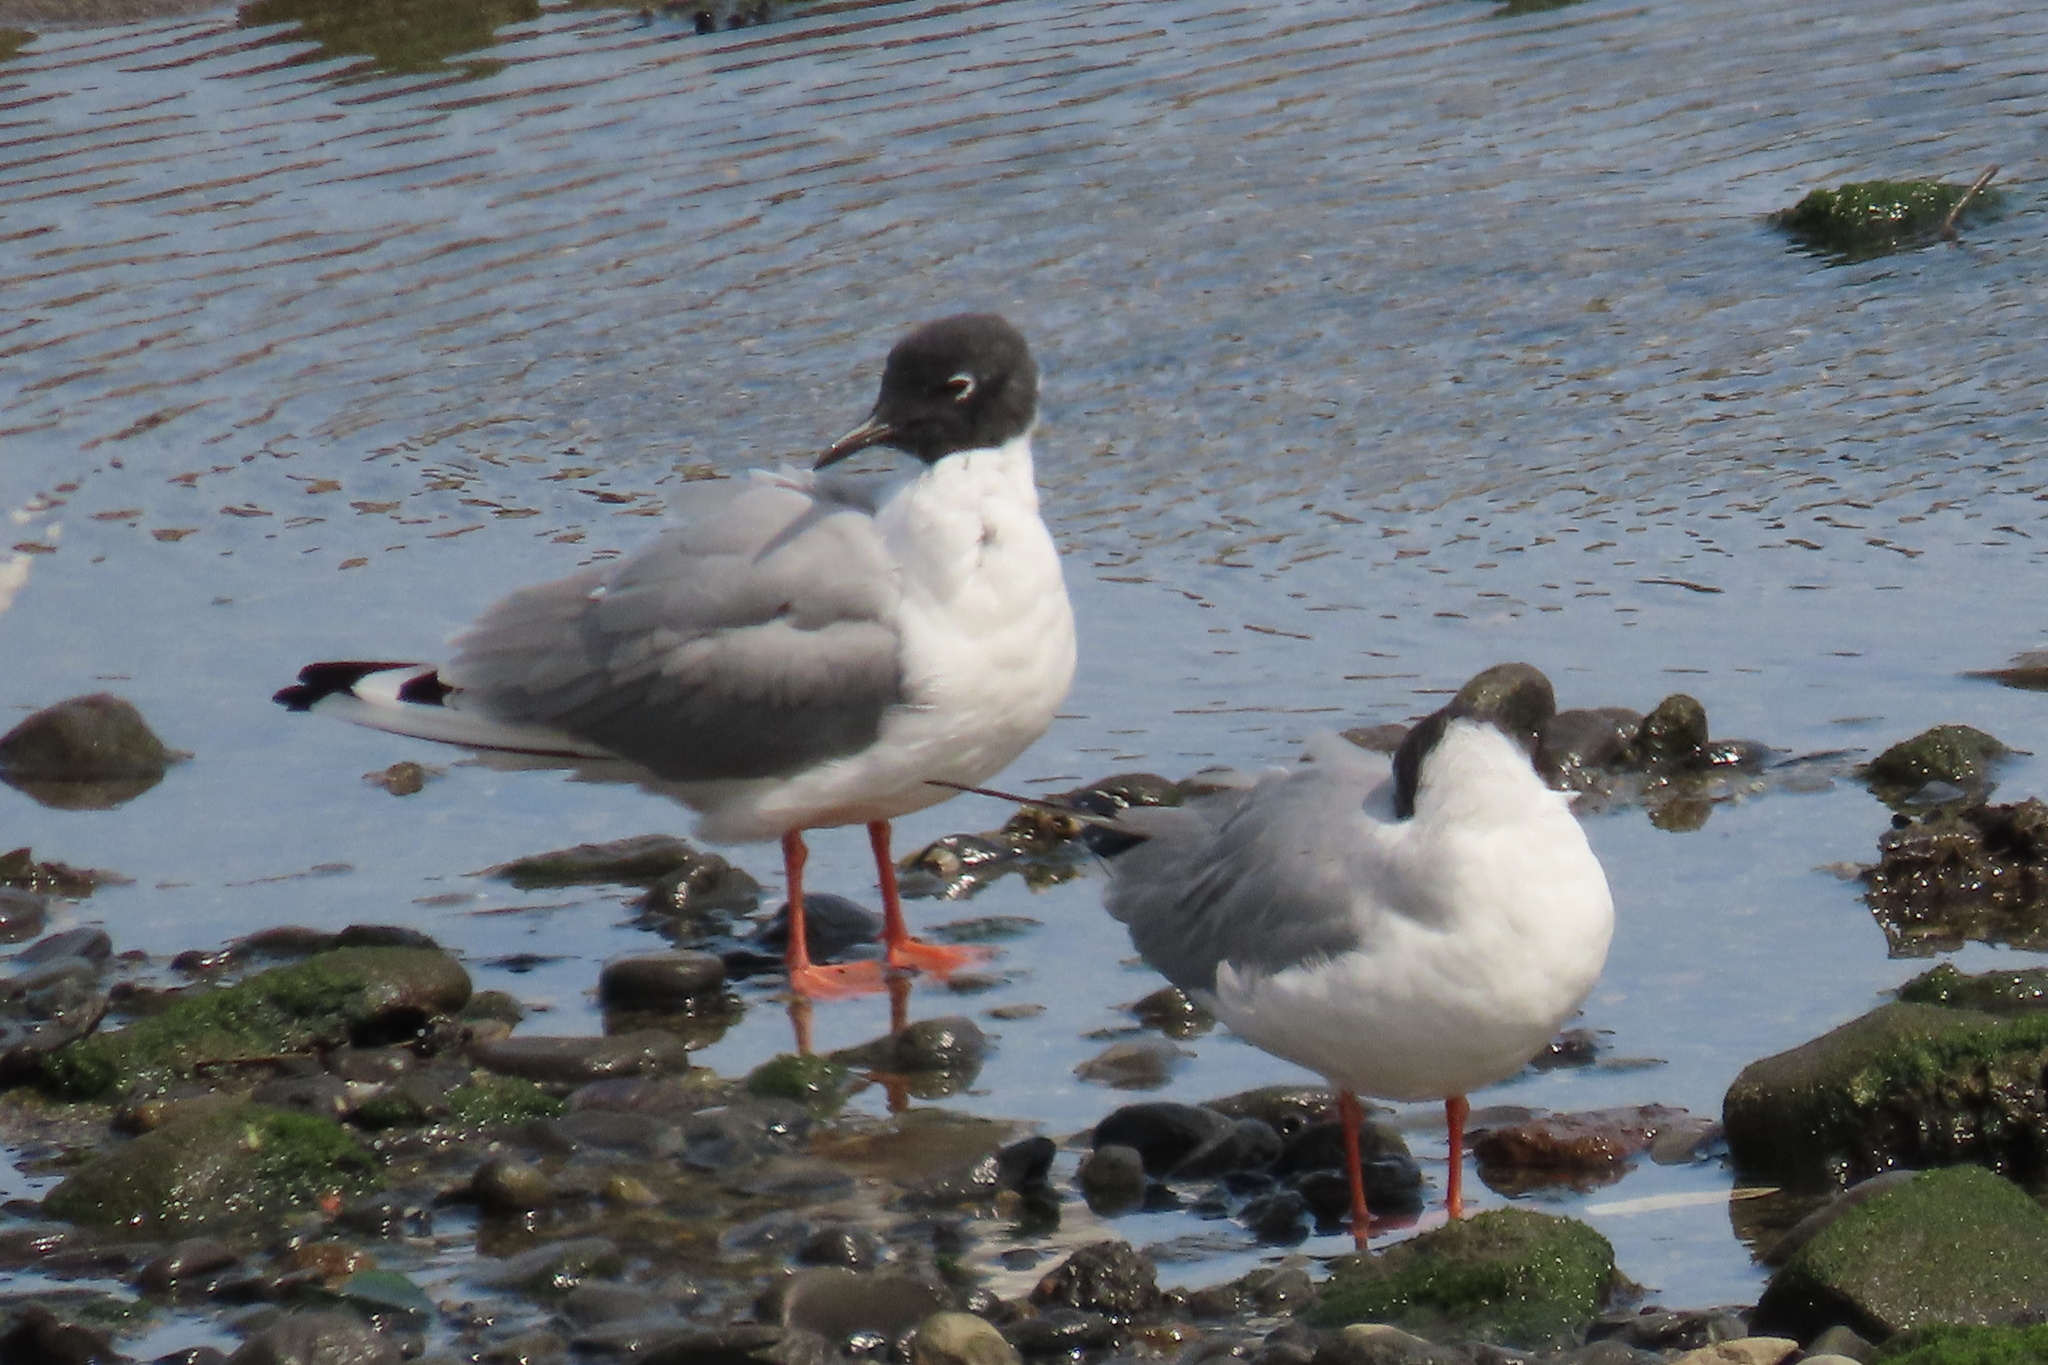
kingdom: Animalia
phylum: Chordata
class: Aves
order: Charadriiformes
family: Laridae
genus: Chroicocephalus
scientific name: Chroicocephalus philadelphia
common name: Bonaparte's gull
